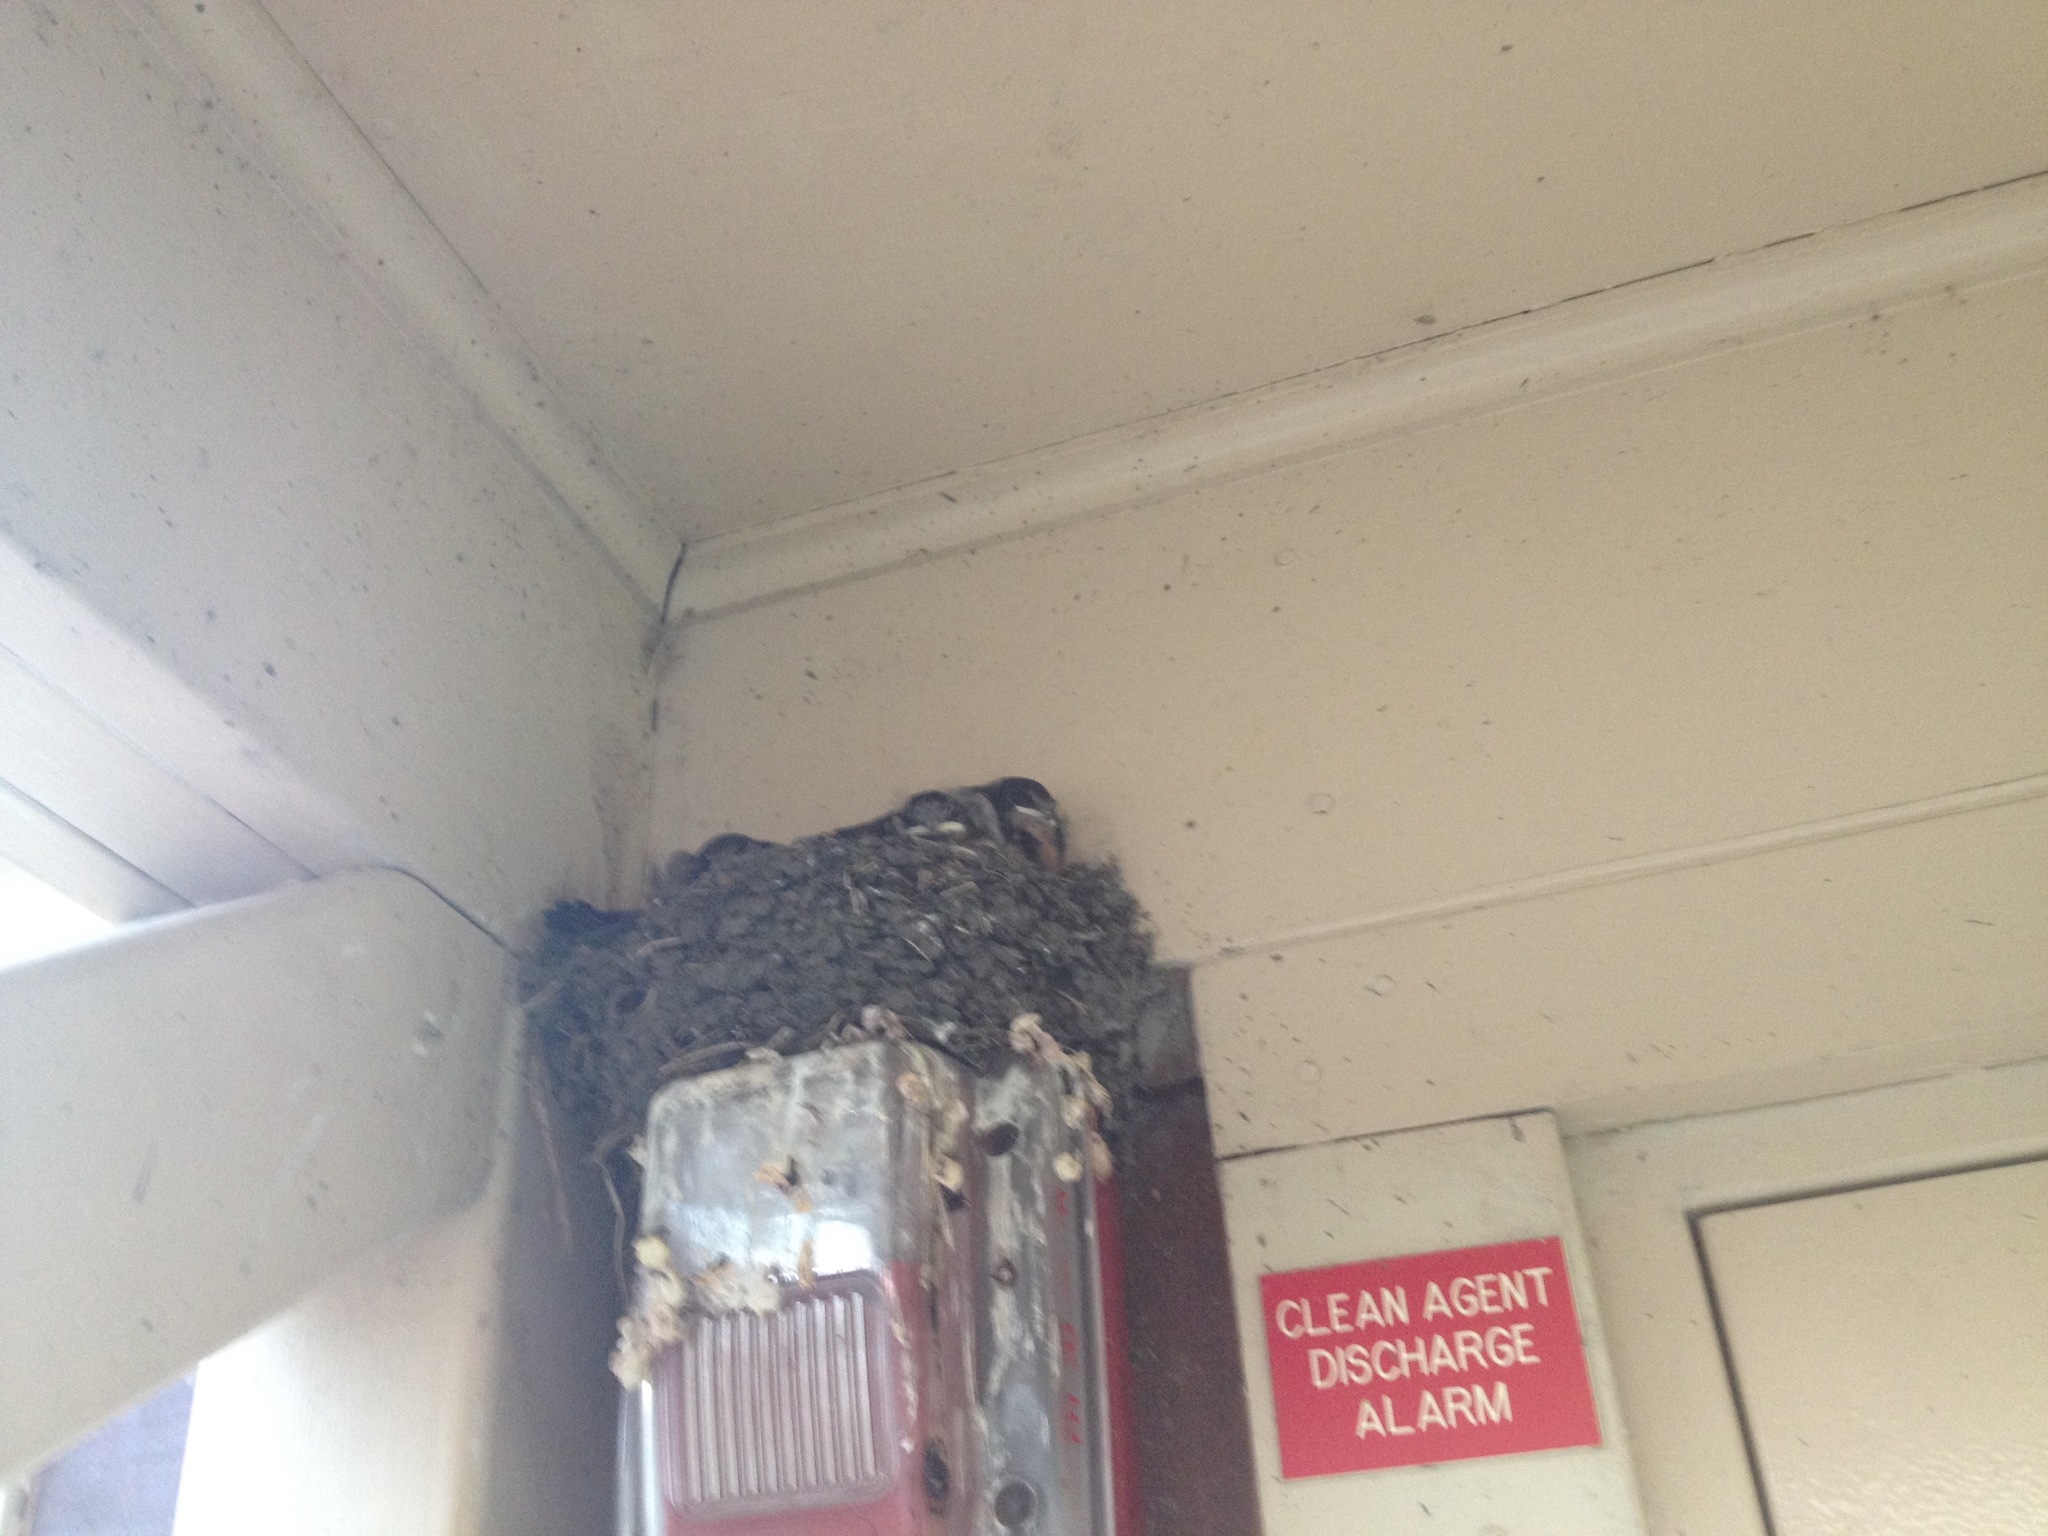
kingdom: Animalia
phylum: Chordata
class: Aves
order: Passeriformes
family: Hirundinidae
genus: Hirundo
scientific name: Hirundo rustica
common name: Barn swallow
